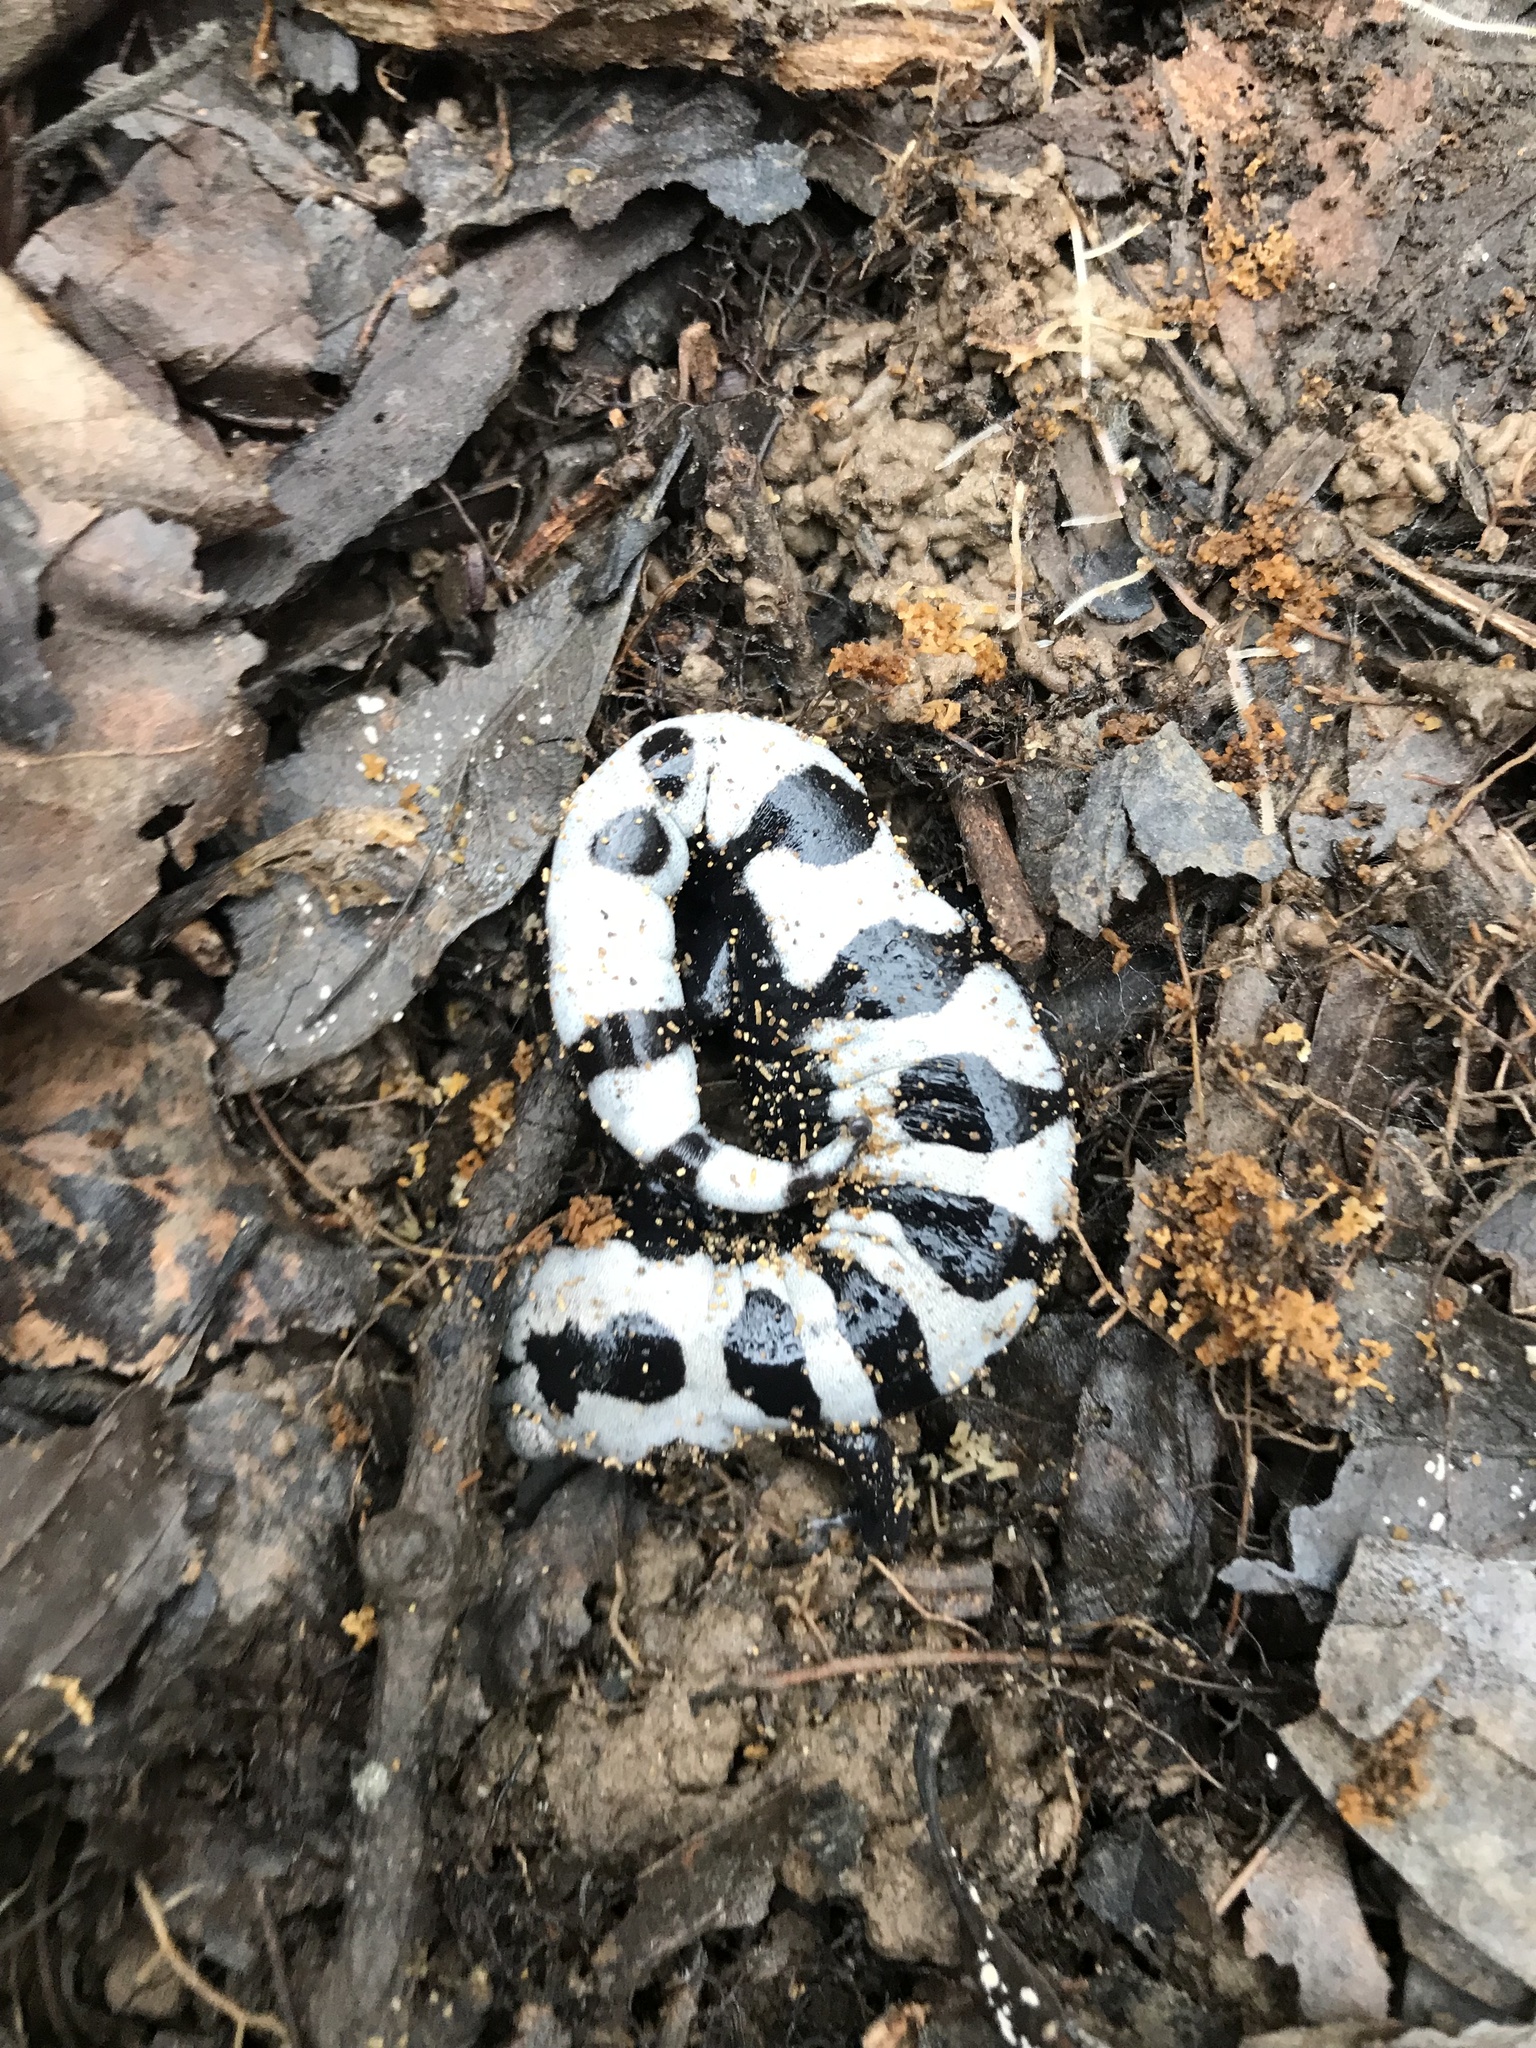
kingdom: Animalia
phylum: Chordata
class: Amphibia
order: Caudata
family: Ambystomatidae
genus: Ambystoma
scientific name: Ambystoma opacum
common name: Marbled salamander
